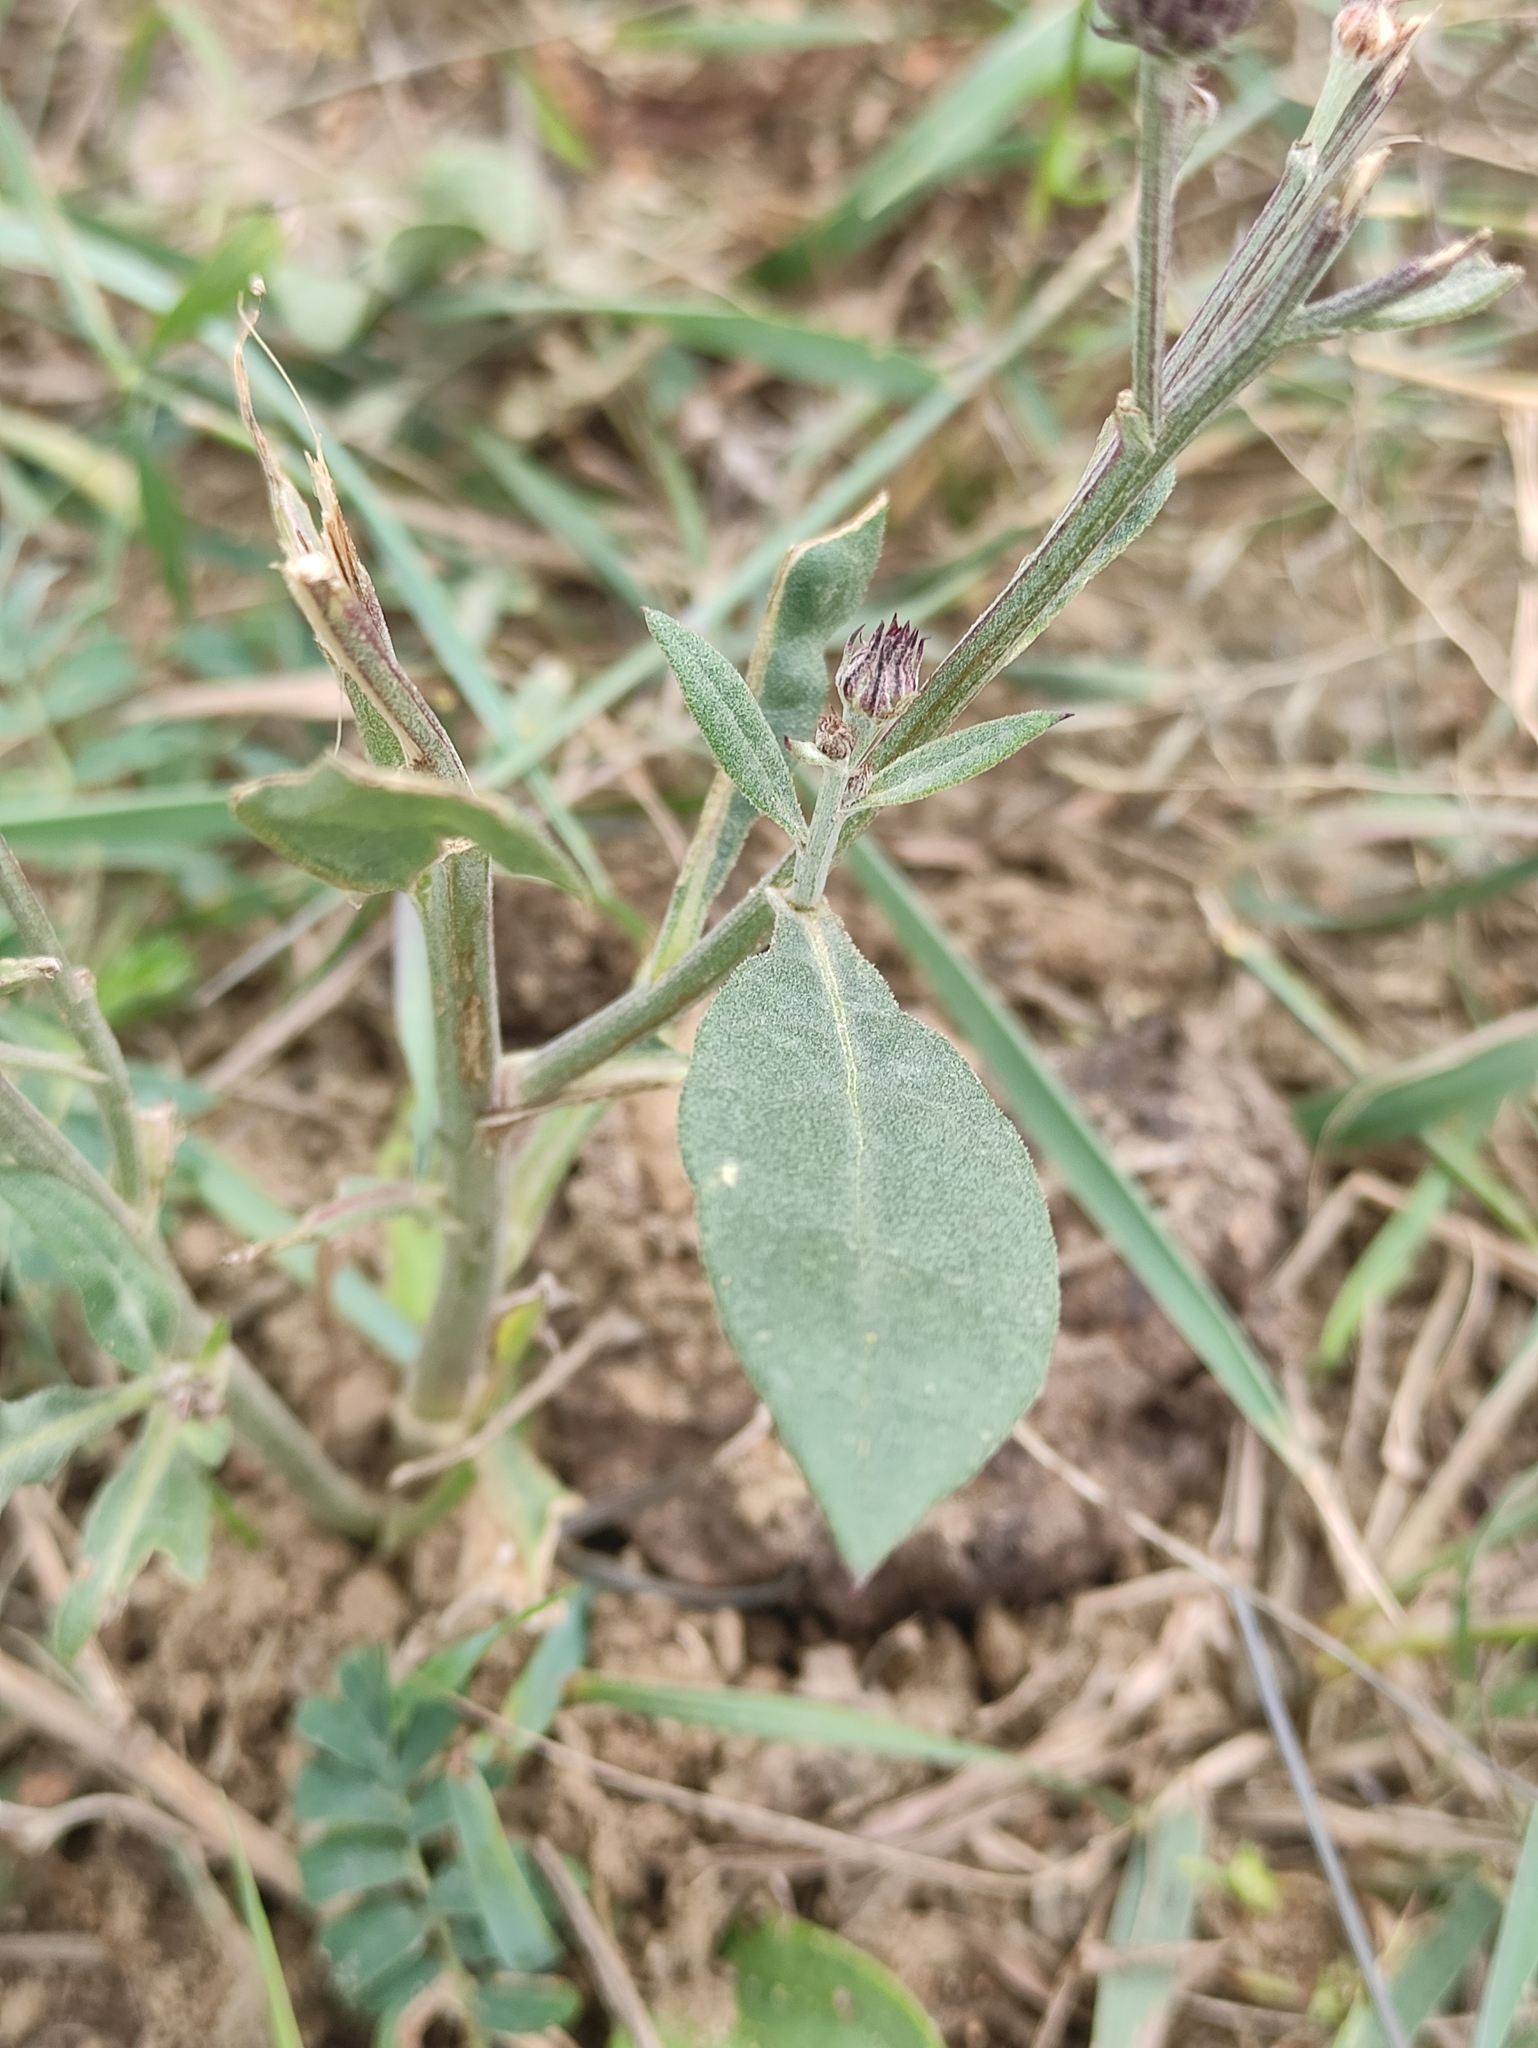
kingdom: Plantae
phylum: Tracheophyta
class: Magnoliopsida
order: Asterales
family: Asteraceae
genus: Saussurea
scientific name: Saussurea amara
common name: Alberta sawwort
